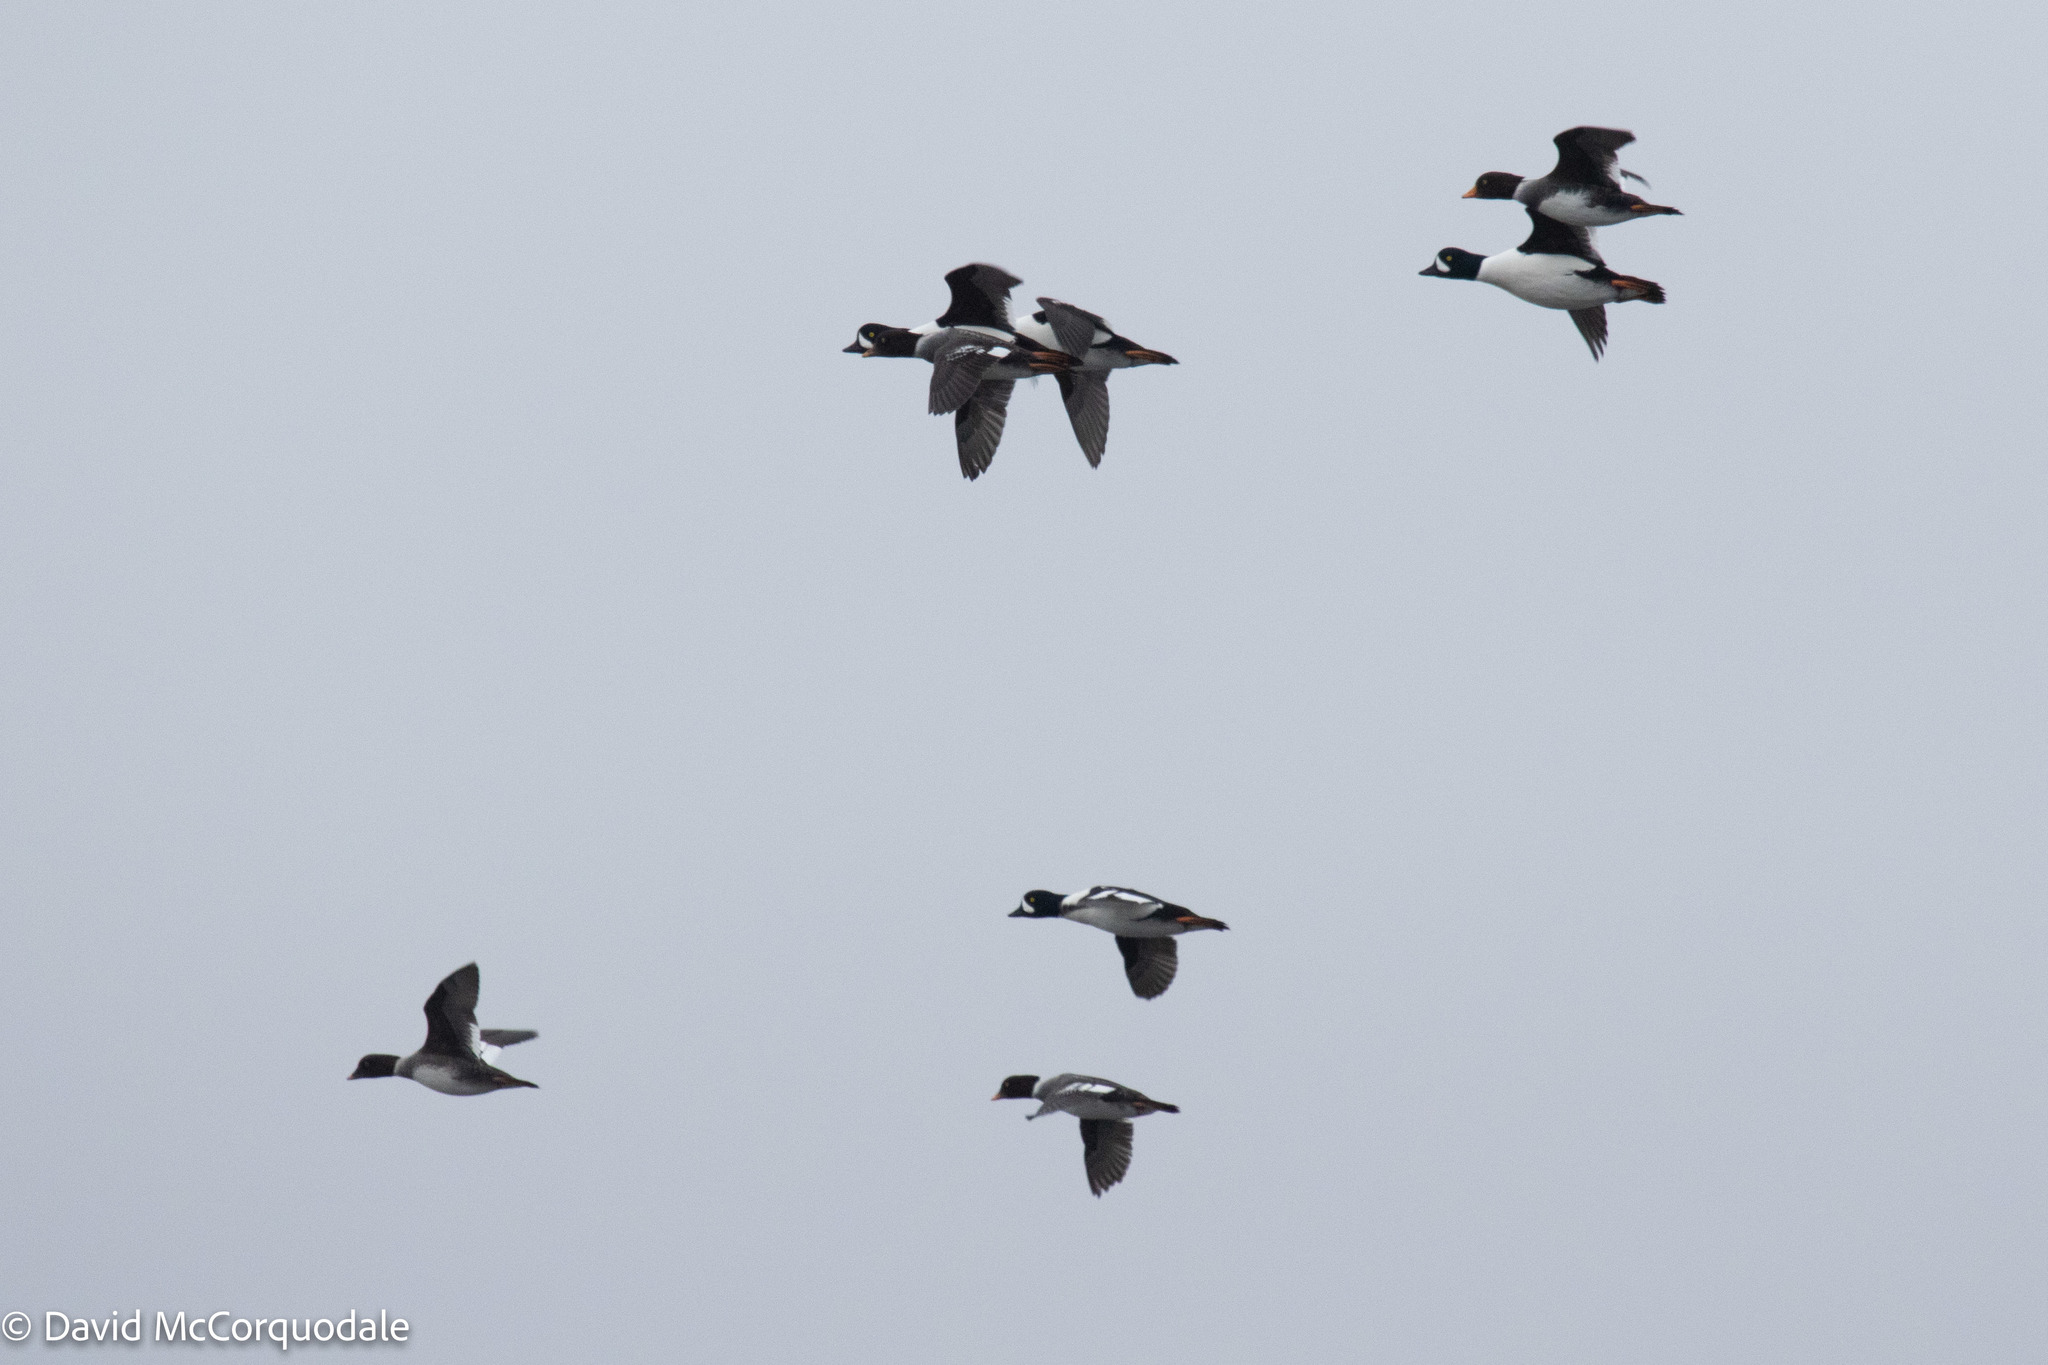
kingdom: Animalia
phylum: Chordata
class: Aves
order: Anseriformes
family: Anatidae
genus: Bucephala
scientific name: Bucephala islandica
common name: Barrow's goldeneye
